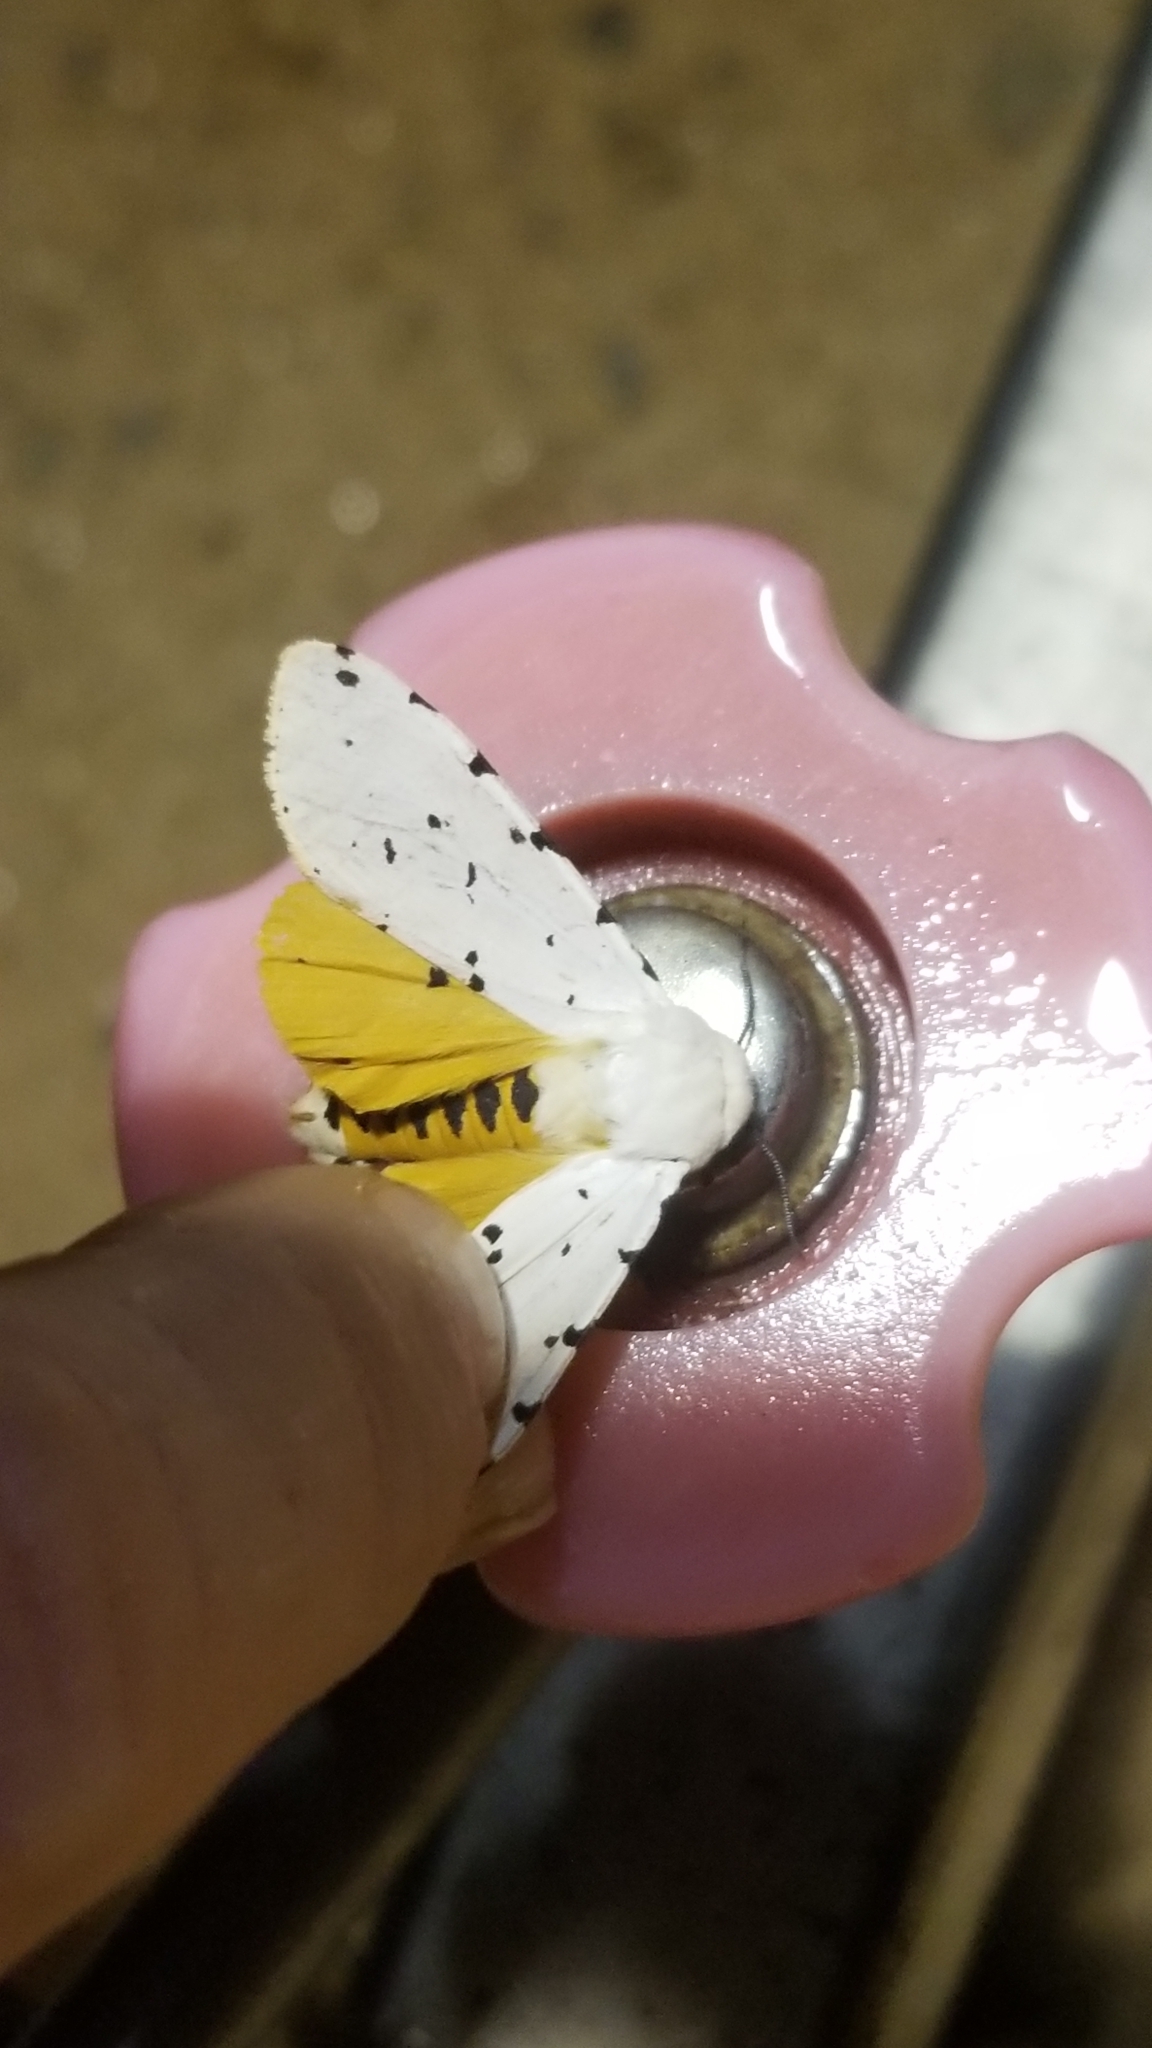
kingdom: Animalia
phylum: Arthropoda
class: Insecta
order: Lepidoptera
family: Erebidae
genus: Estigmene
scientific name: Estigmene acrea
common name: Salt marsh moth
